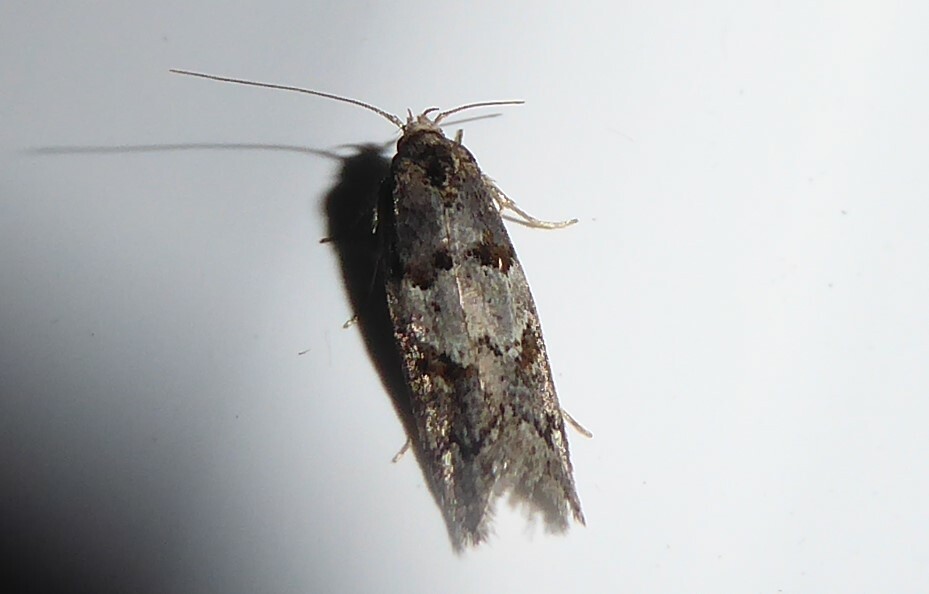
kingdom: Animalia
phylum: Arthropoda
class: Insecta
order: Lepidoptera
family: Oecophoridae
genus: Trachypepla
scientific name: Trachypepla contritella
